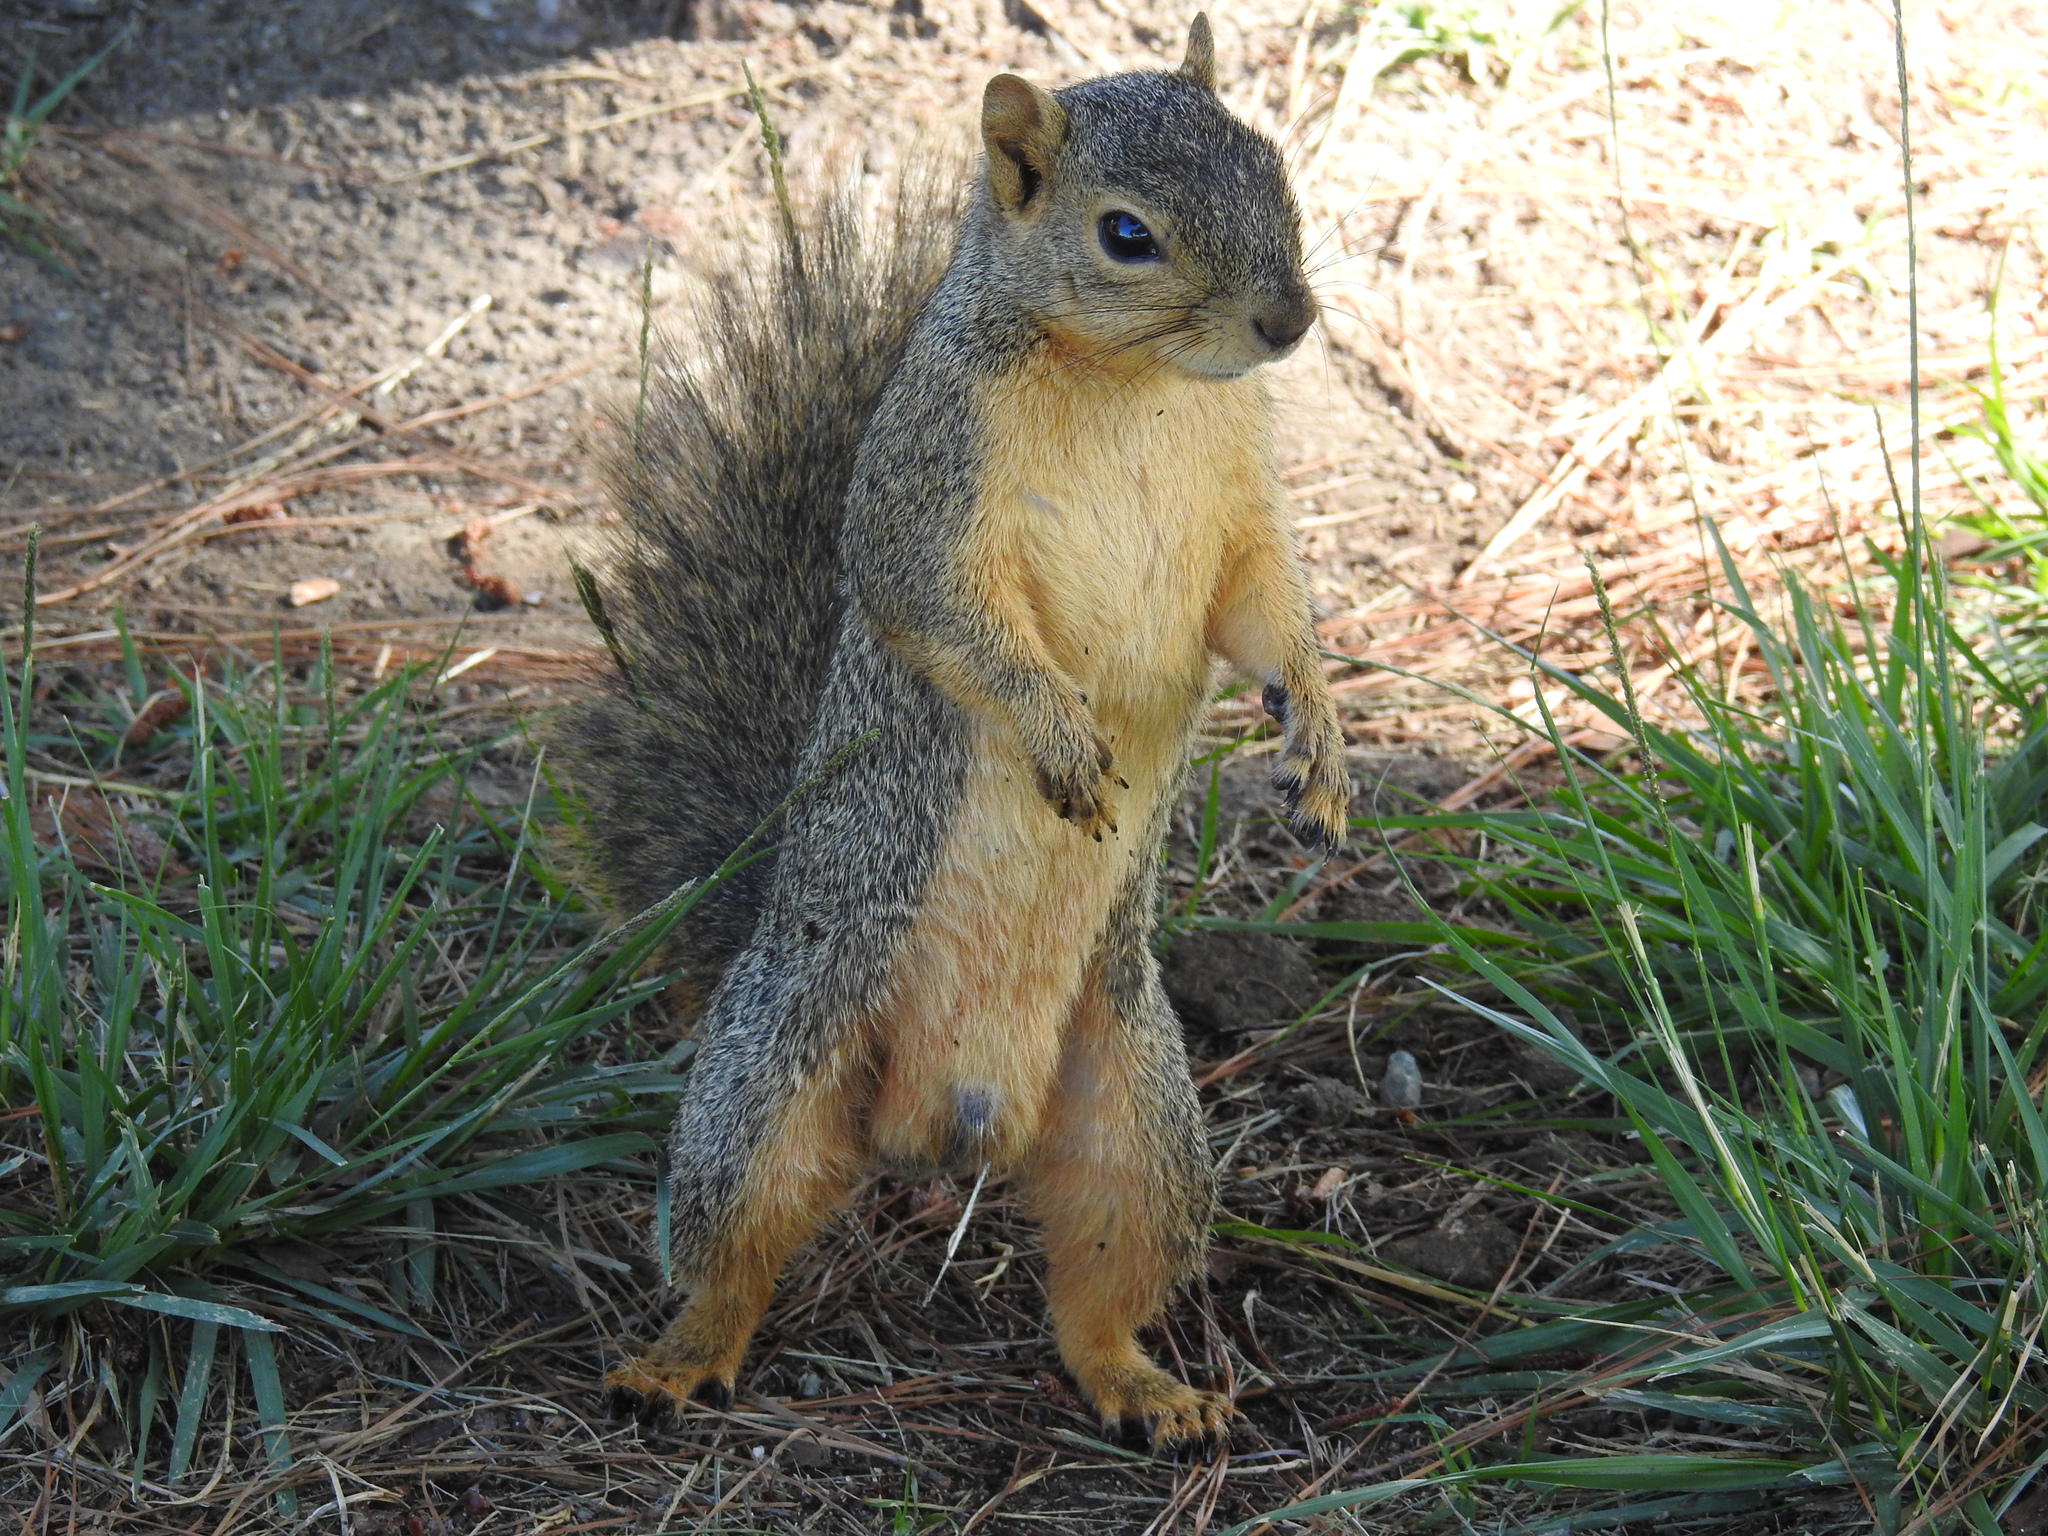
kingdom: Animalia
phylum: Chordata
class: Mammalia
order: Rodentia
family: Sciuridae
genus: Sciurus
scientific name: Sciurus niger
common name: Fox squirrel
